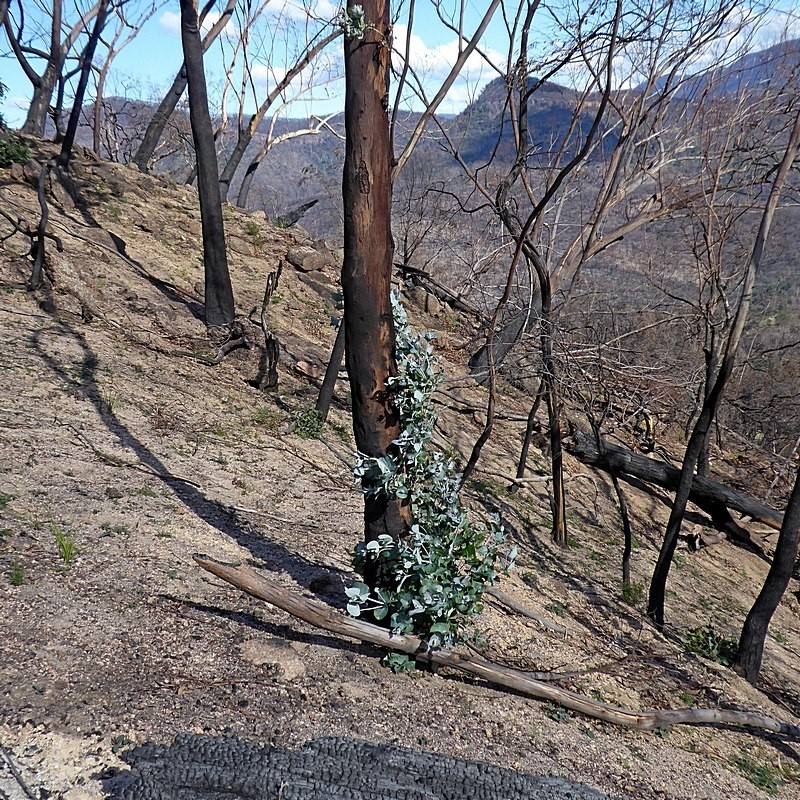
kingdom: Plantae
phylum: Tracheophyta
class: Magnoliopsida
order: Myrtales
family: Myrtaceae
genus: Eucalyptus
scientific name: Eucalyptus globulus
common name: Southern blue-gum
